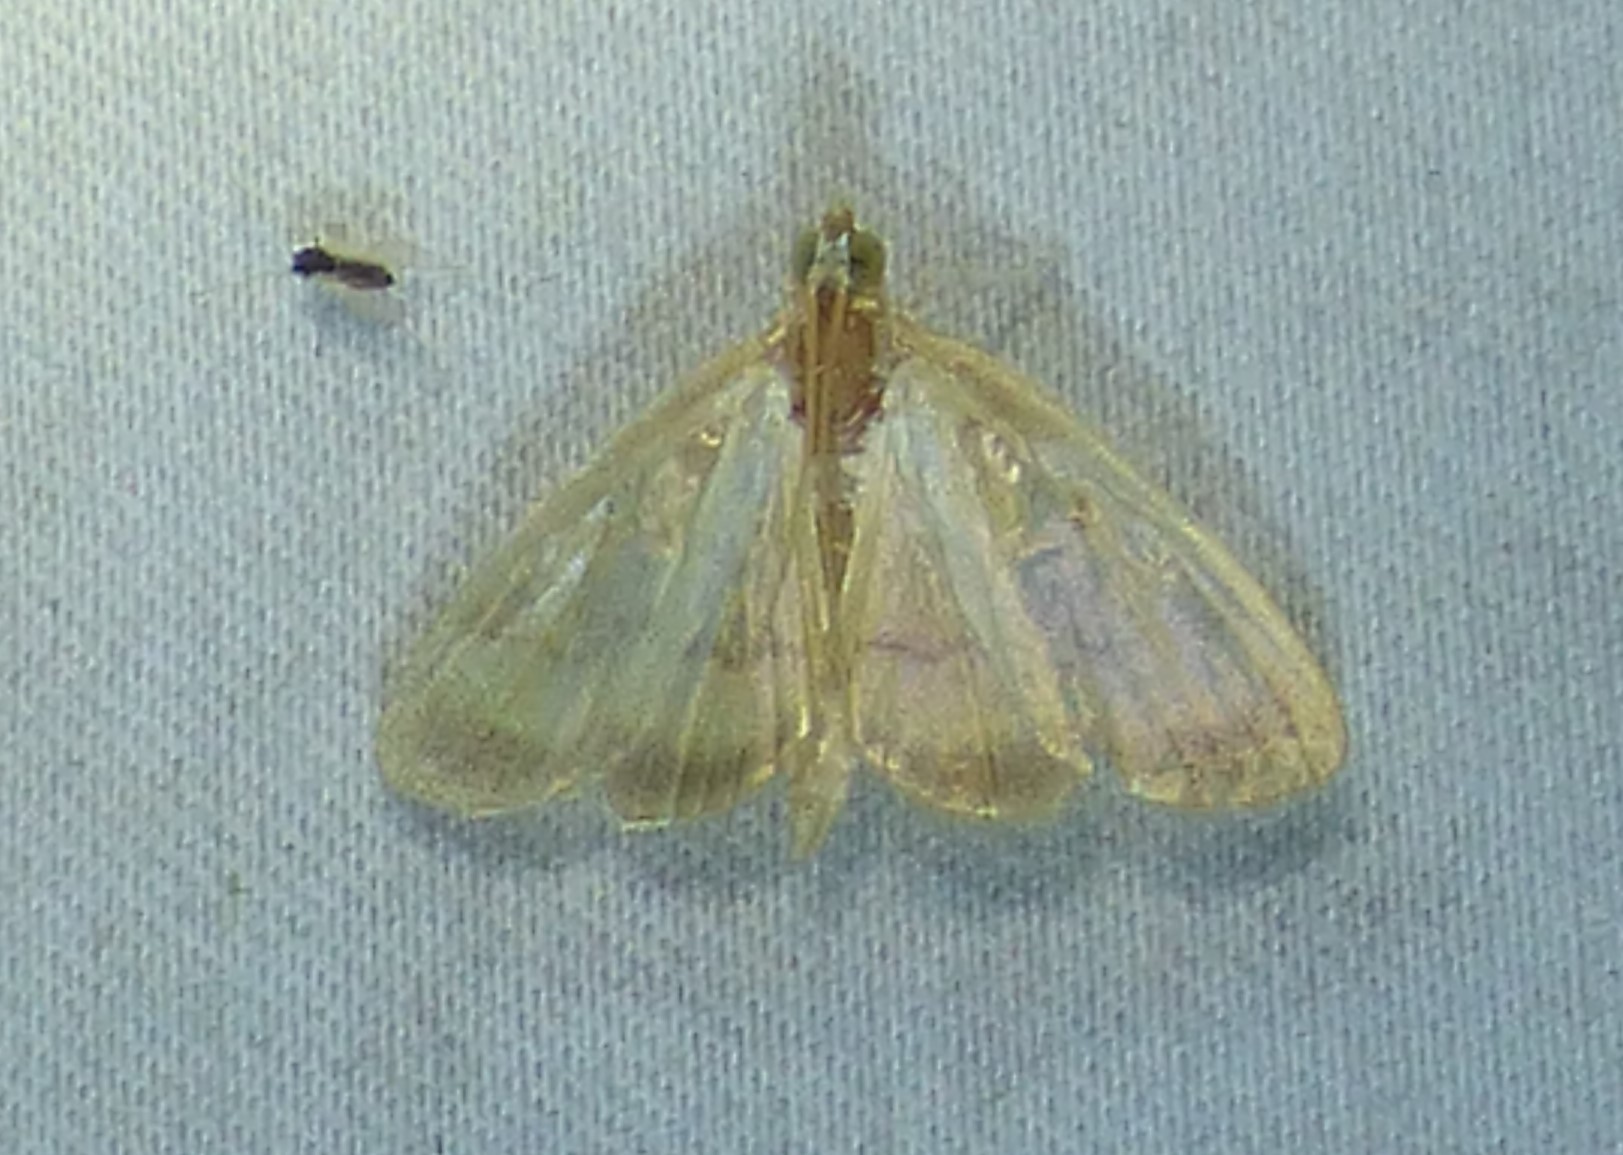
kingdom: Animalia
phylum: Arthropoda
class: Insecta
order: Lepidoptera
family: Crambidae
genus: Crocidophora
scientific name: Crocidophora tuberculalis
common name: Pale-winged crocidiphora moth
